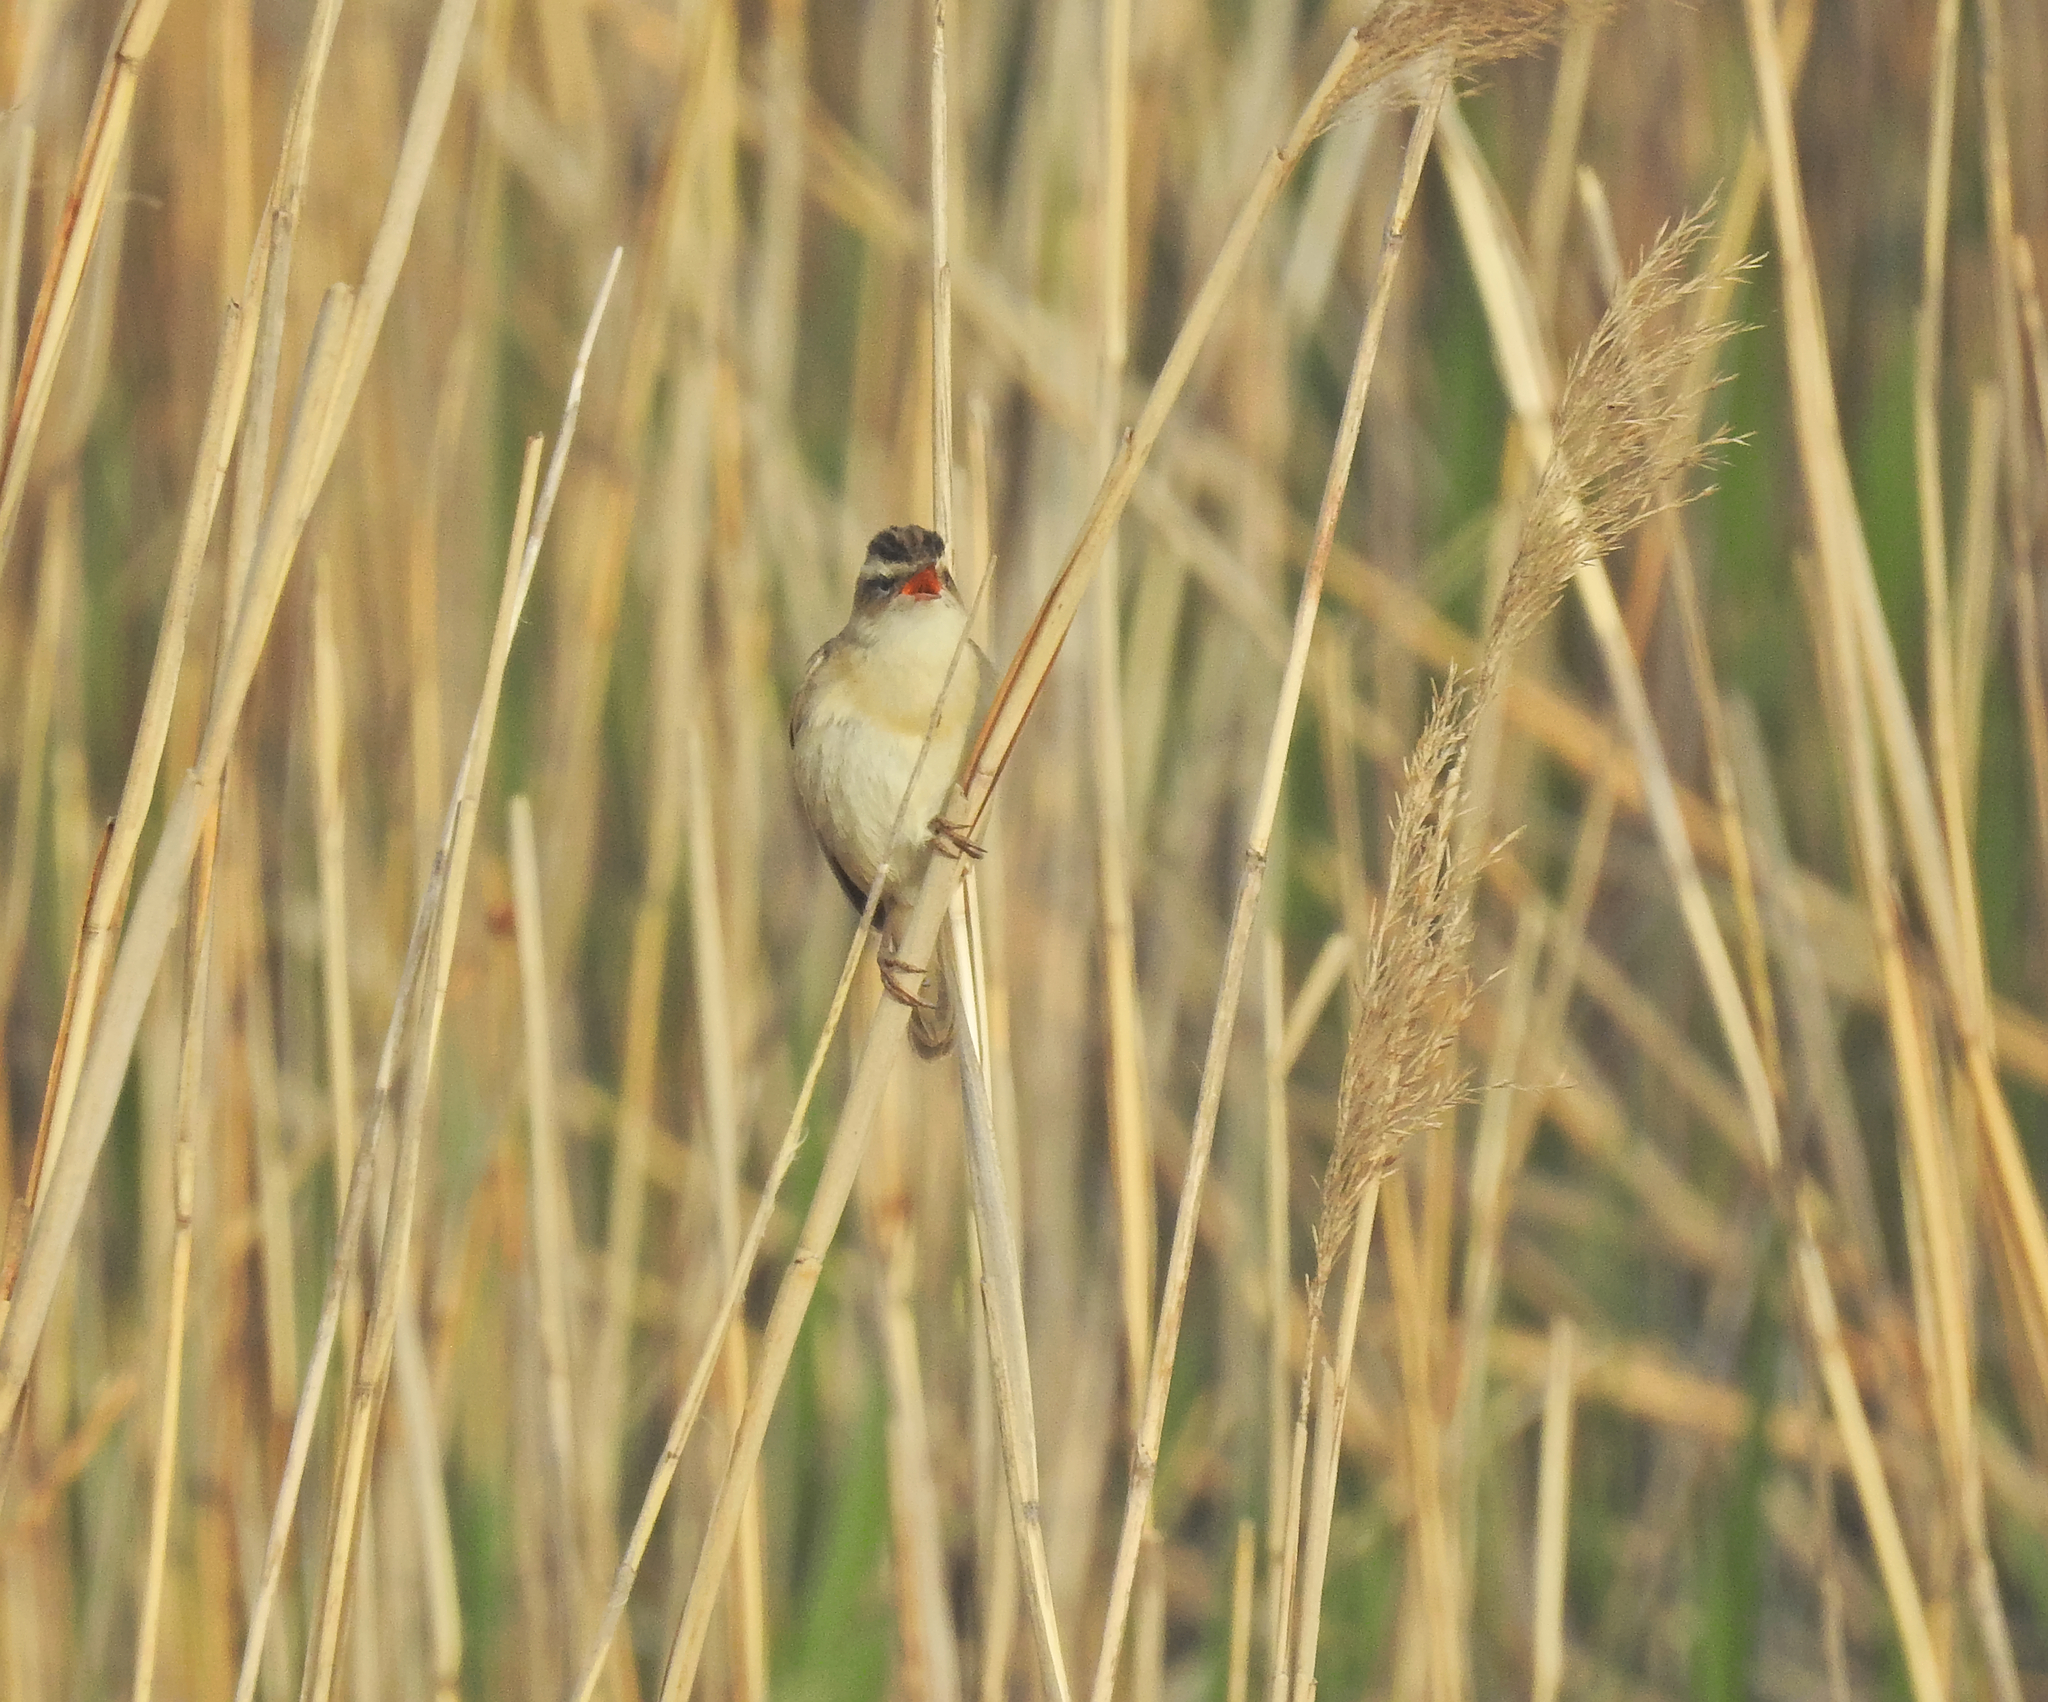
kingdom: Animalia
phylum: Chordata
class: Aves
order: Passeriformes
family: Acrocephalidae
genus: Acrocephalus
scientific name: Acrocephalus schoenobaenus
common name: Sedge warbler
